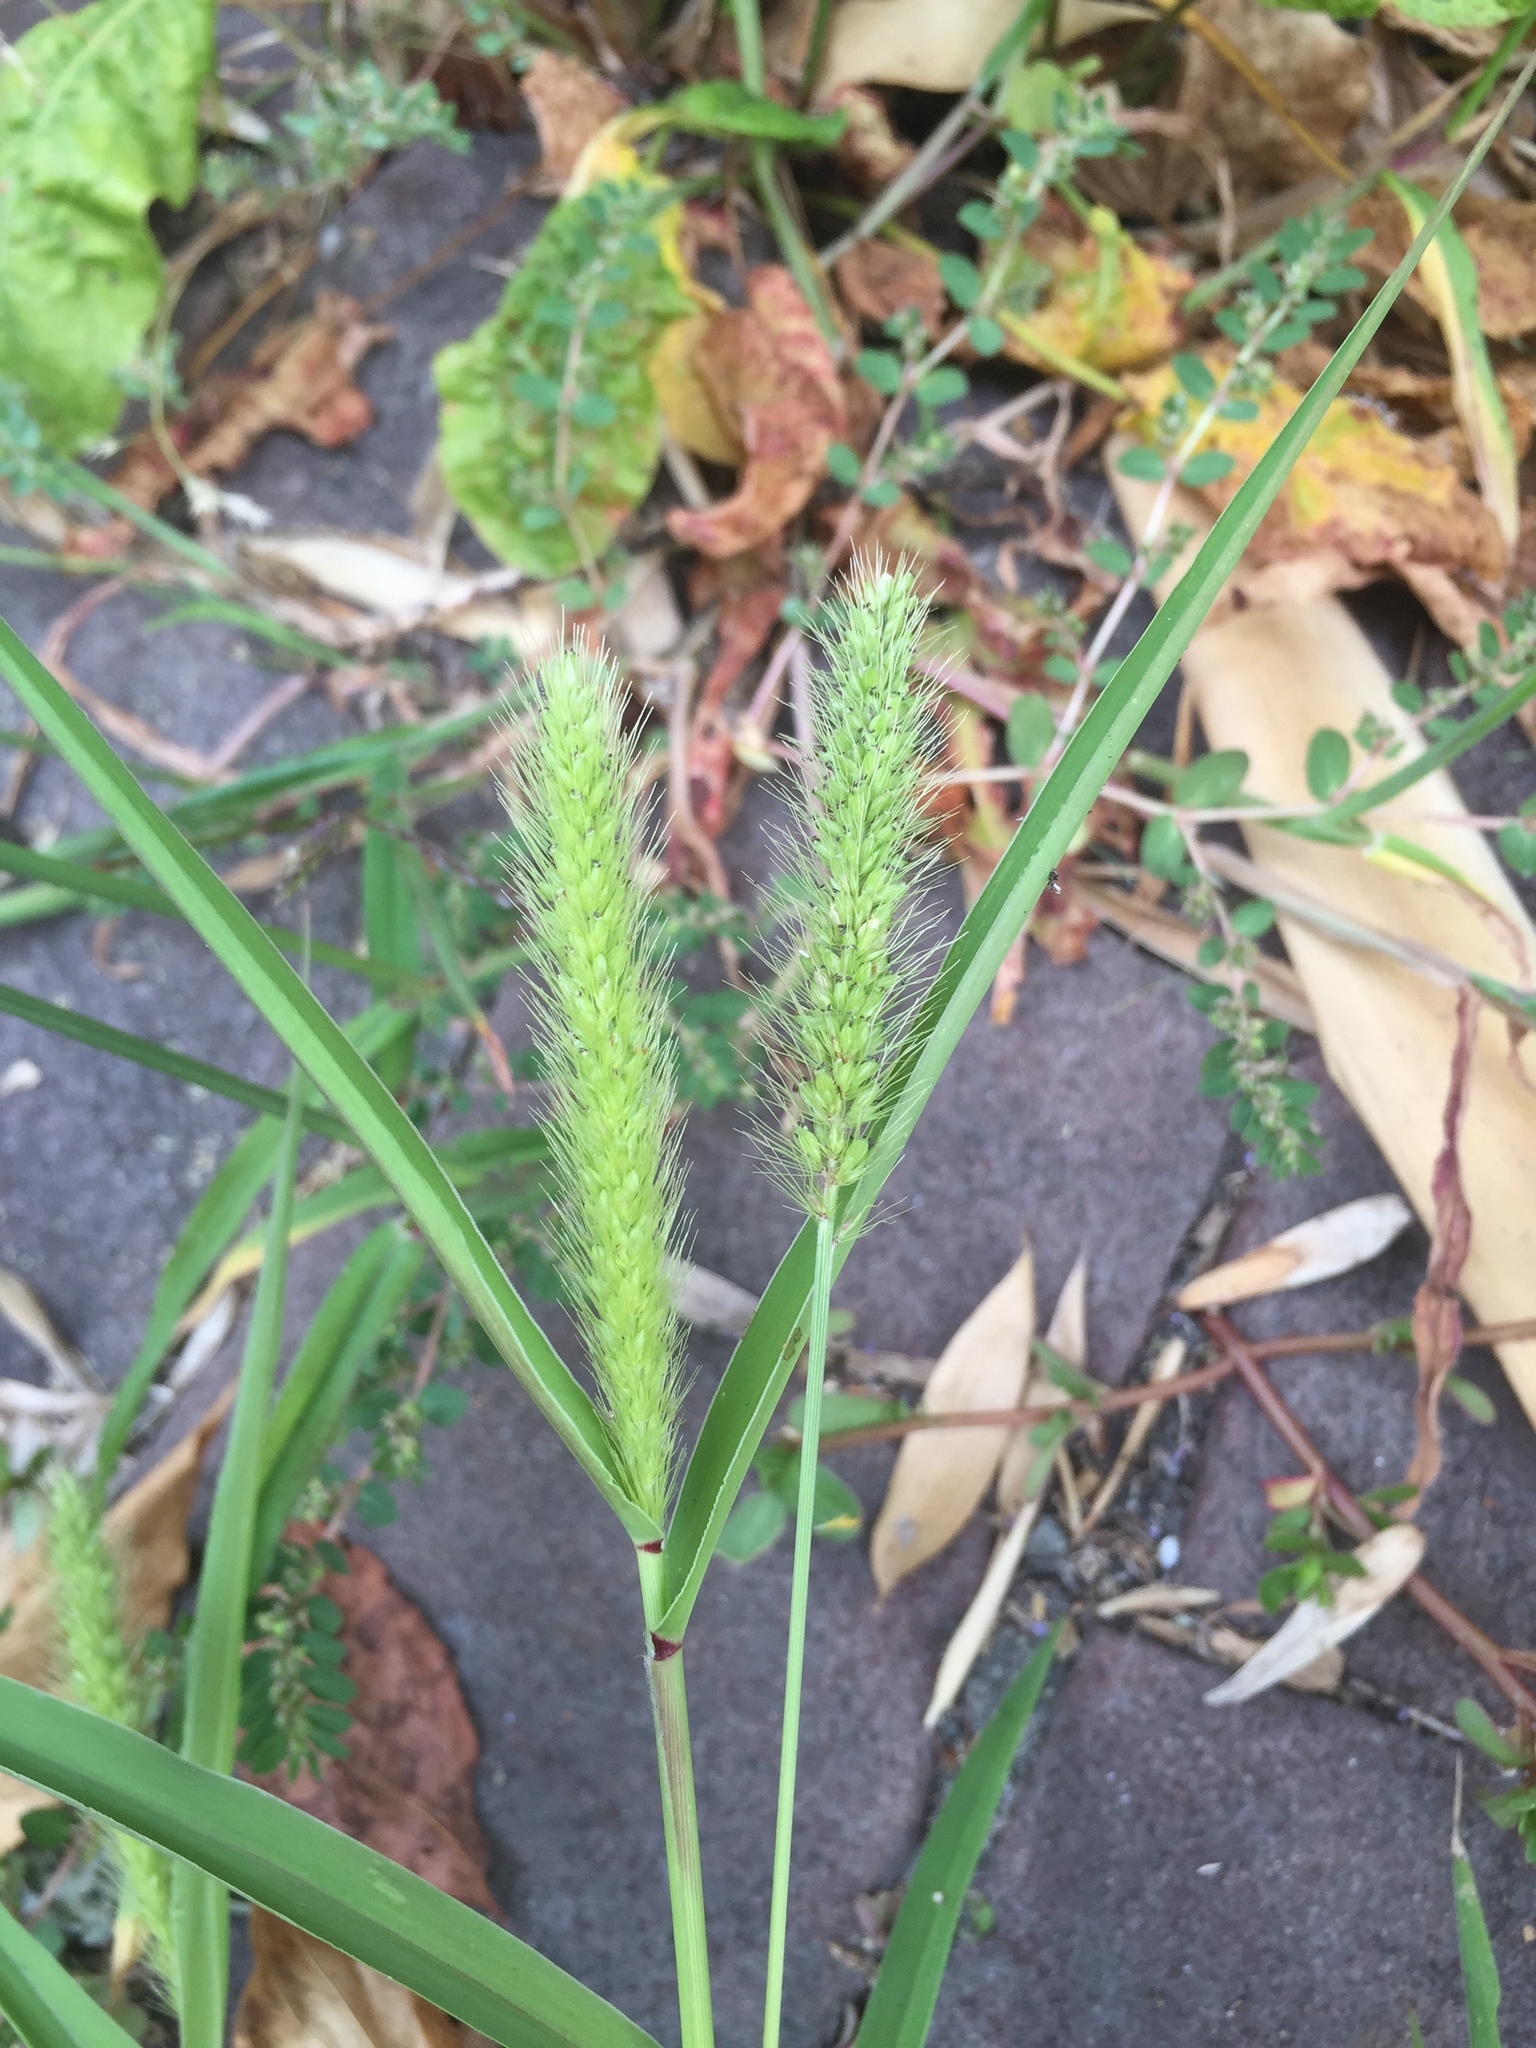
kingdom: Plantae
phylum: Tracheophyta
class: Liliopsida
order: Poales
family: Poaceae
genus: Setaria
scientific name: Setaria viridis
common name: Green bristlegrass
